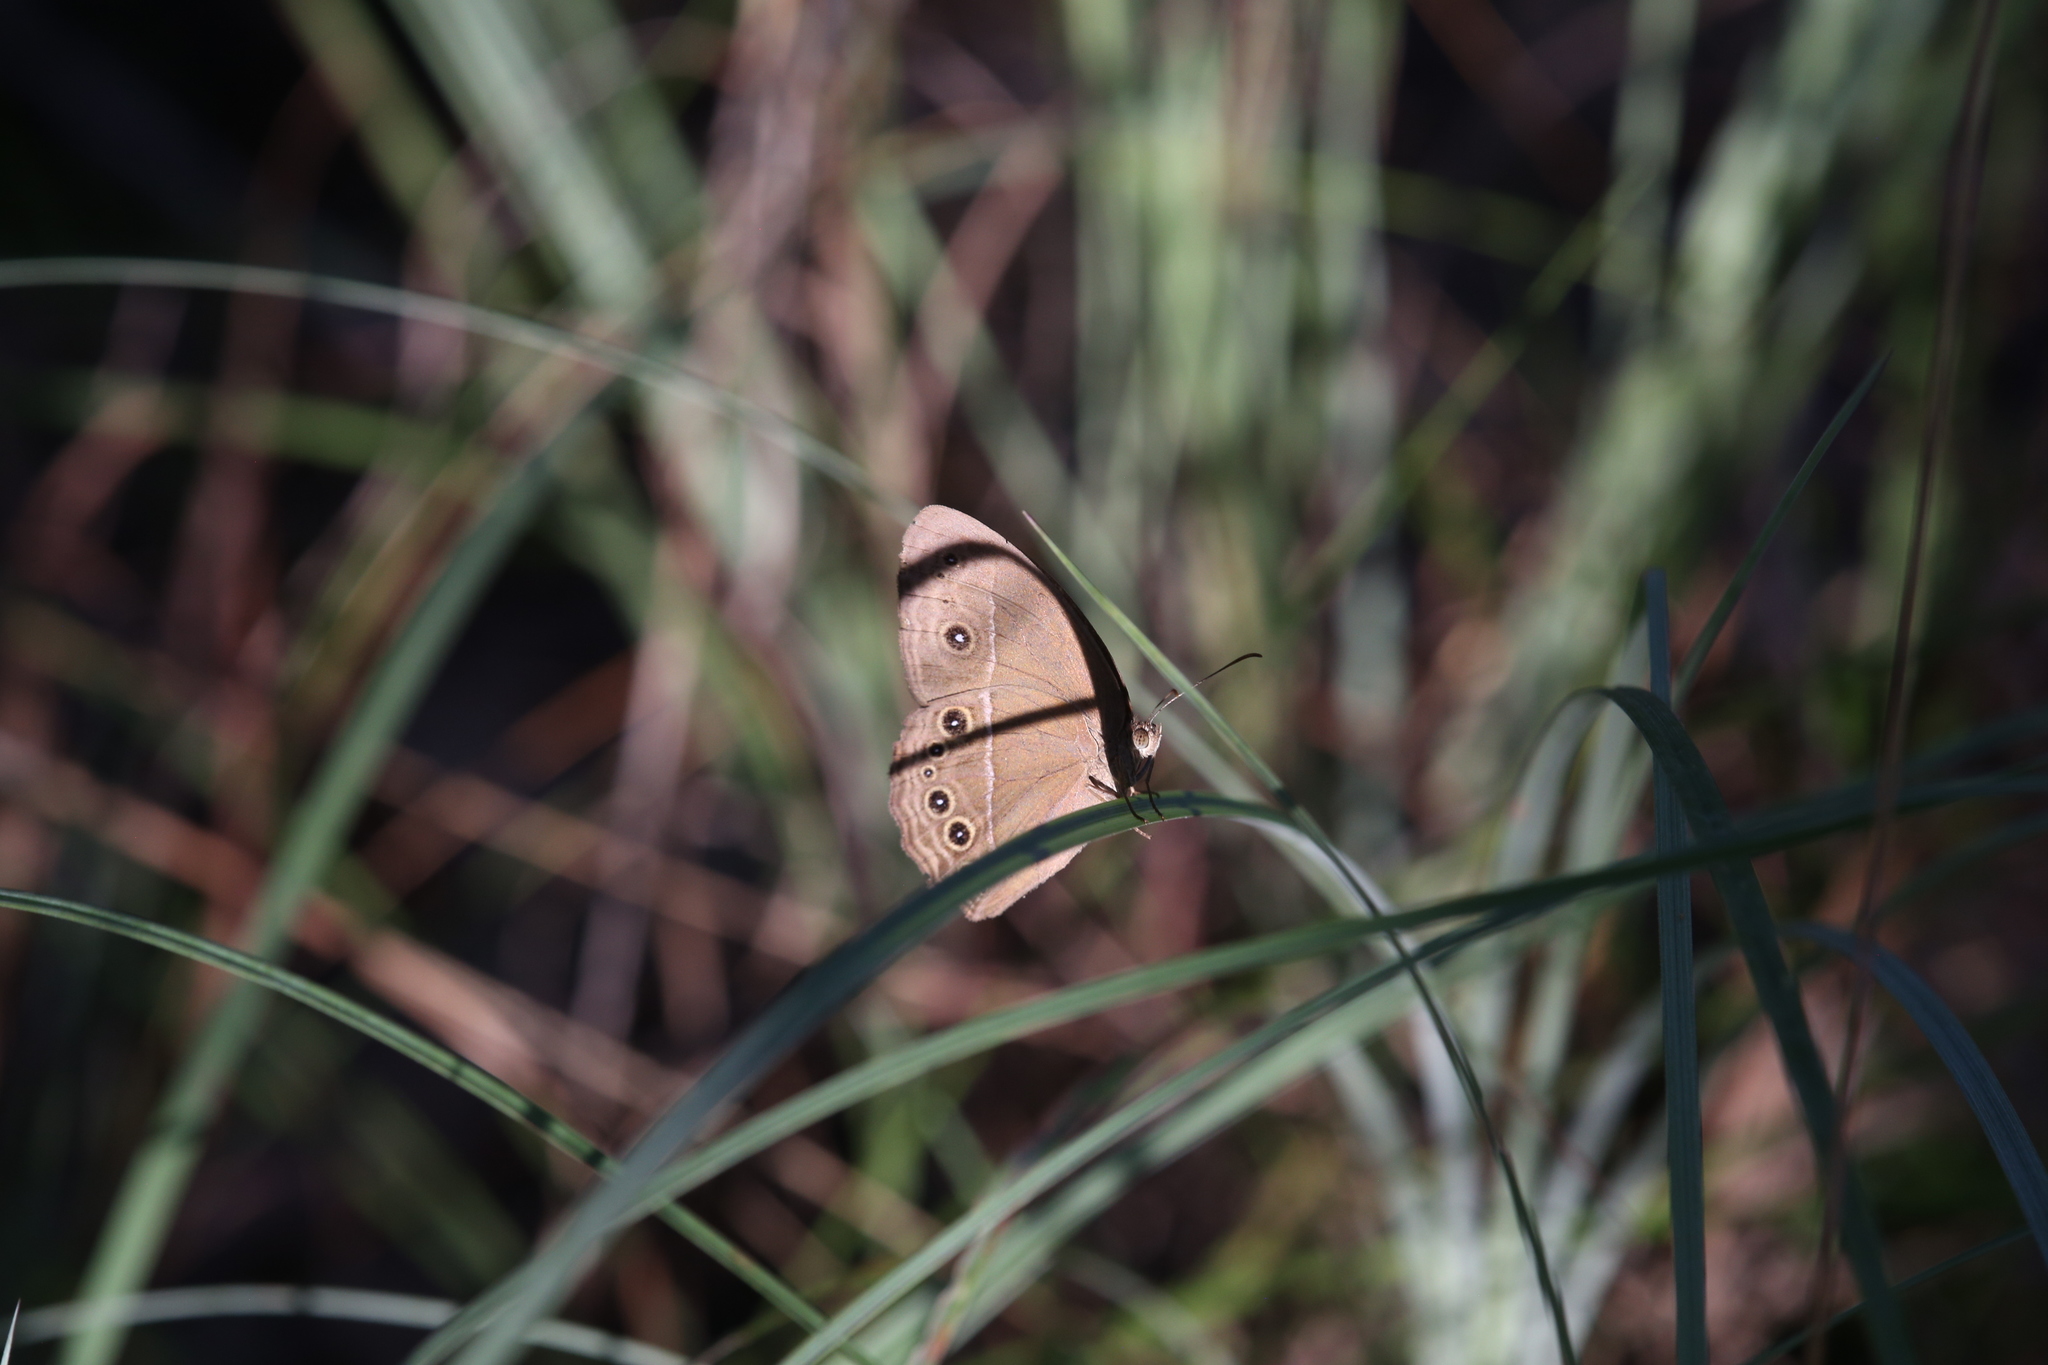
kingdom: Animalia
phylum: Arthropoda
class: Insecta
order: Lepidoptera
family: Nymphalidae
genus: Mycalesis
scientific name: Mycalesis perseus
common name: Dingy bushbrown
